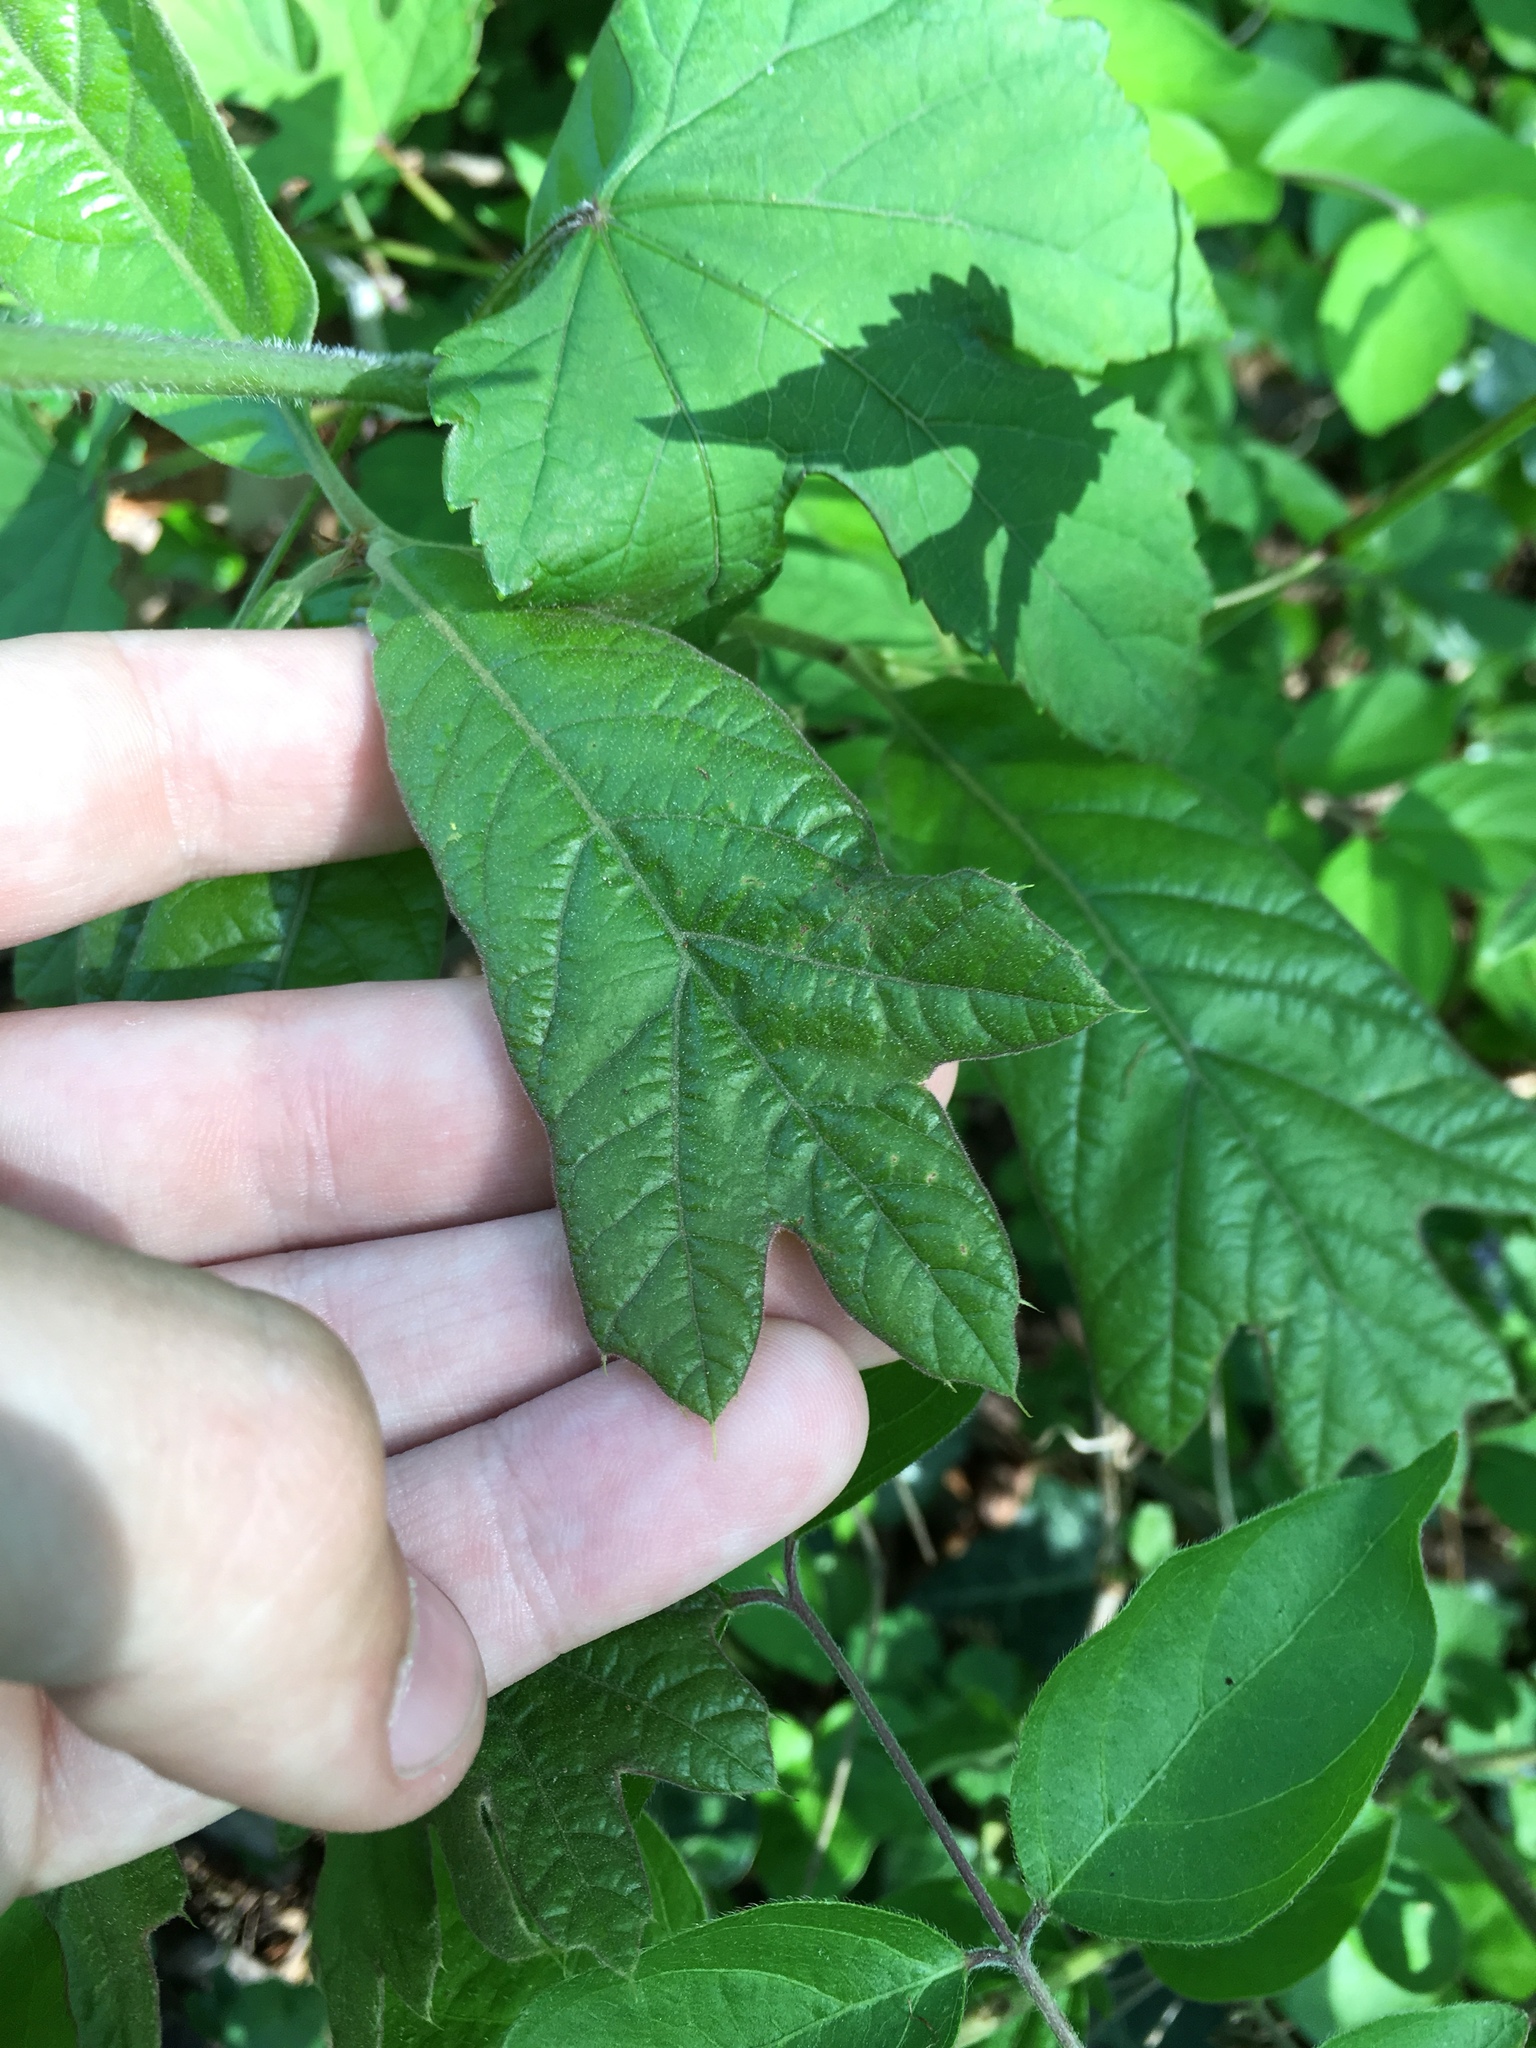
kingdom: Plantae
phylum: Tracheophyta
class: Magnoliopsida
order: Fagales
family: Fagaceae
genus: Quercus
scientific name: Quercus falcata
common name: Southern red oak
